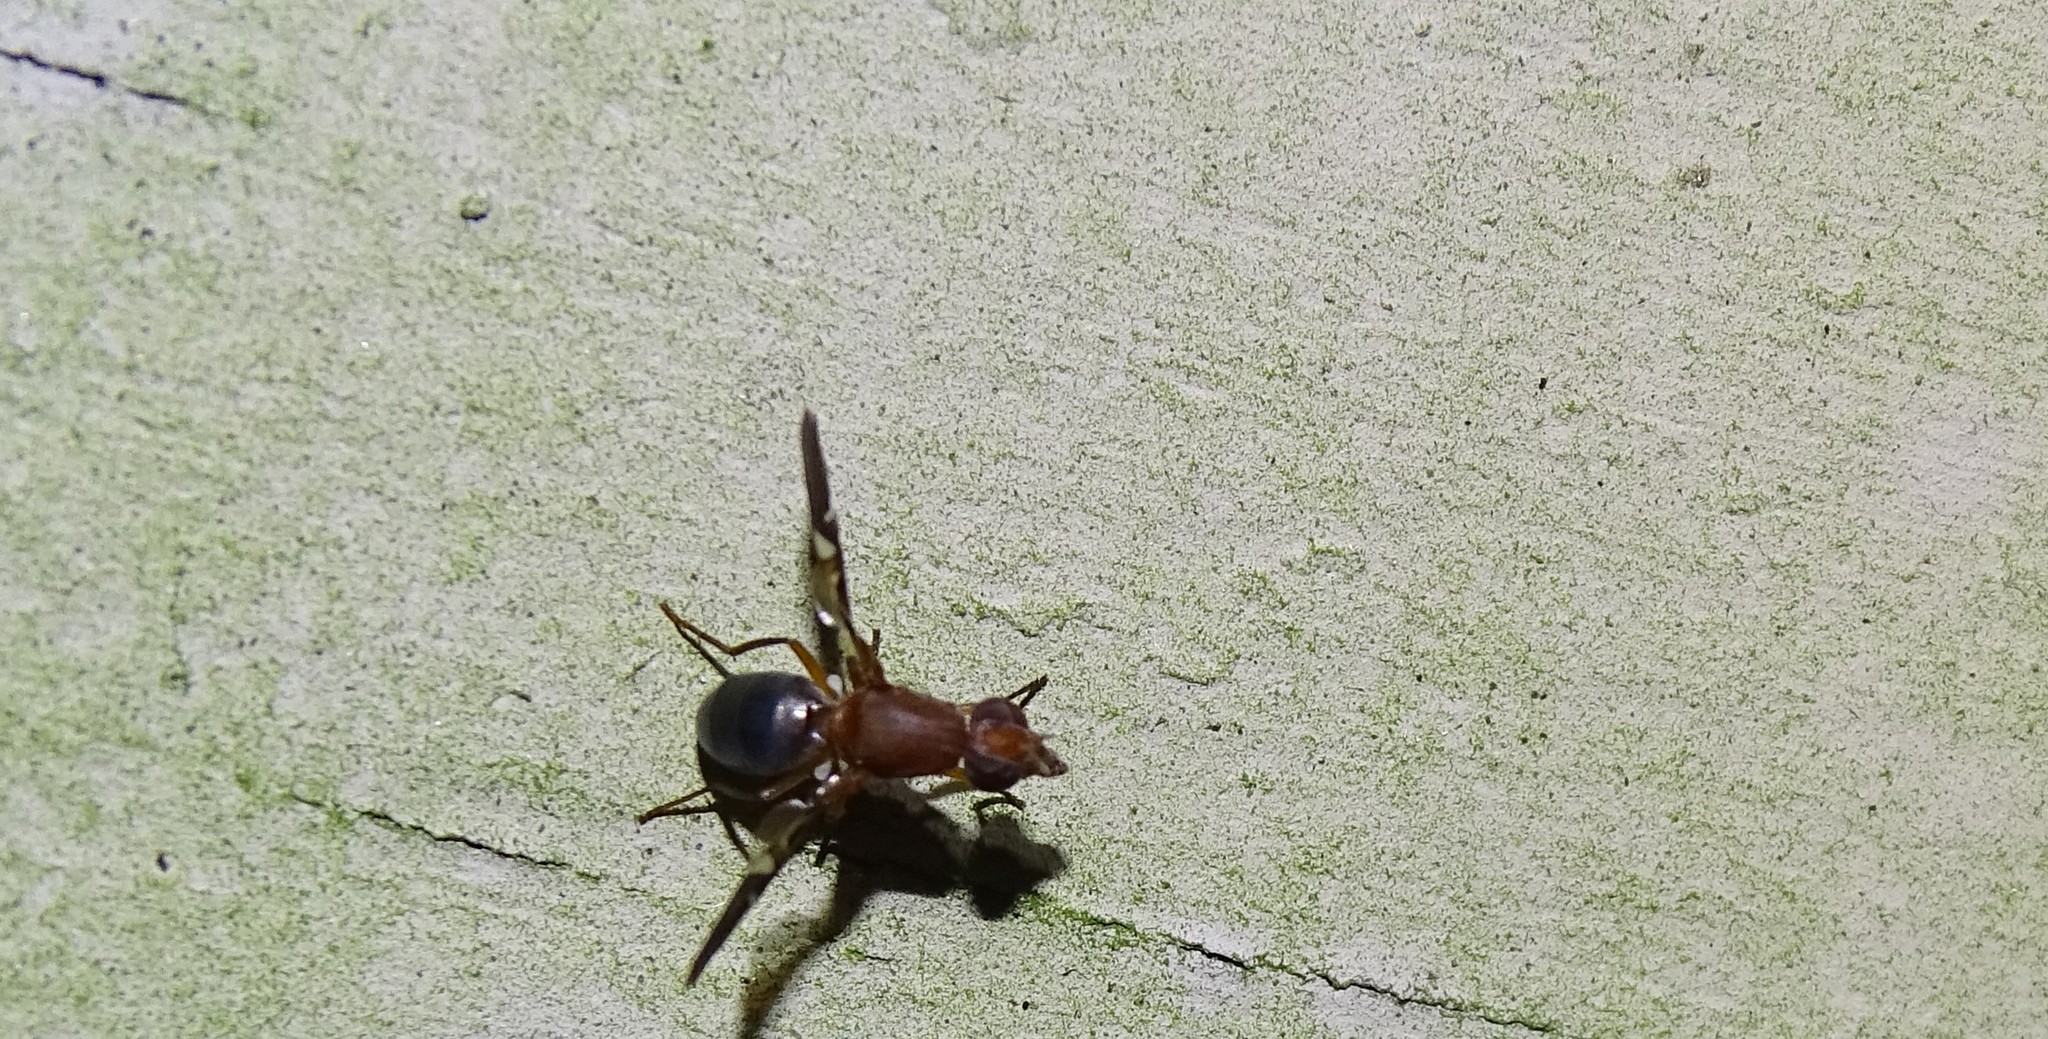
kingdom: Animalia
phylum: Arthropoda
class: Insecta
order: Diptera
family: Ulidiidae
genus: Delphinia
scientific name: Delphinia picta
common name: Common picture-winged fly
